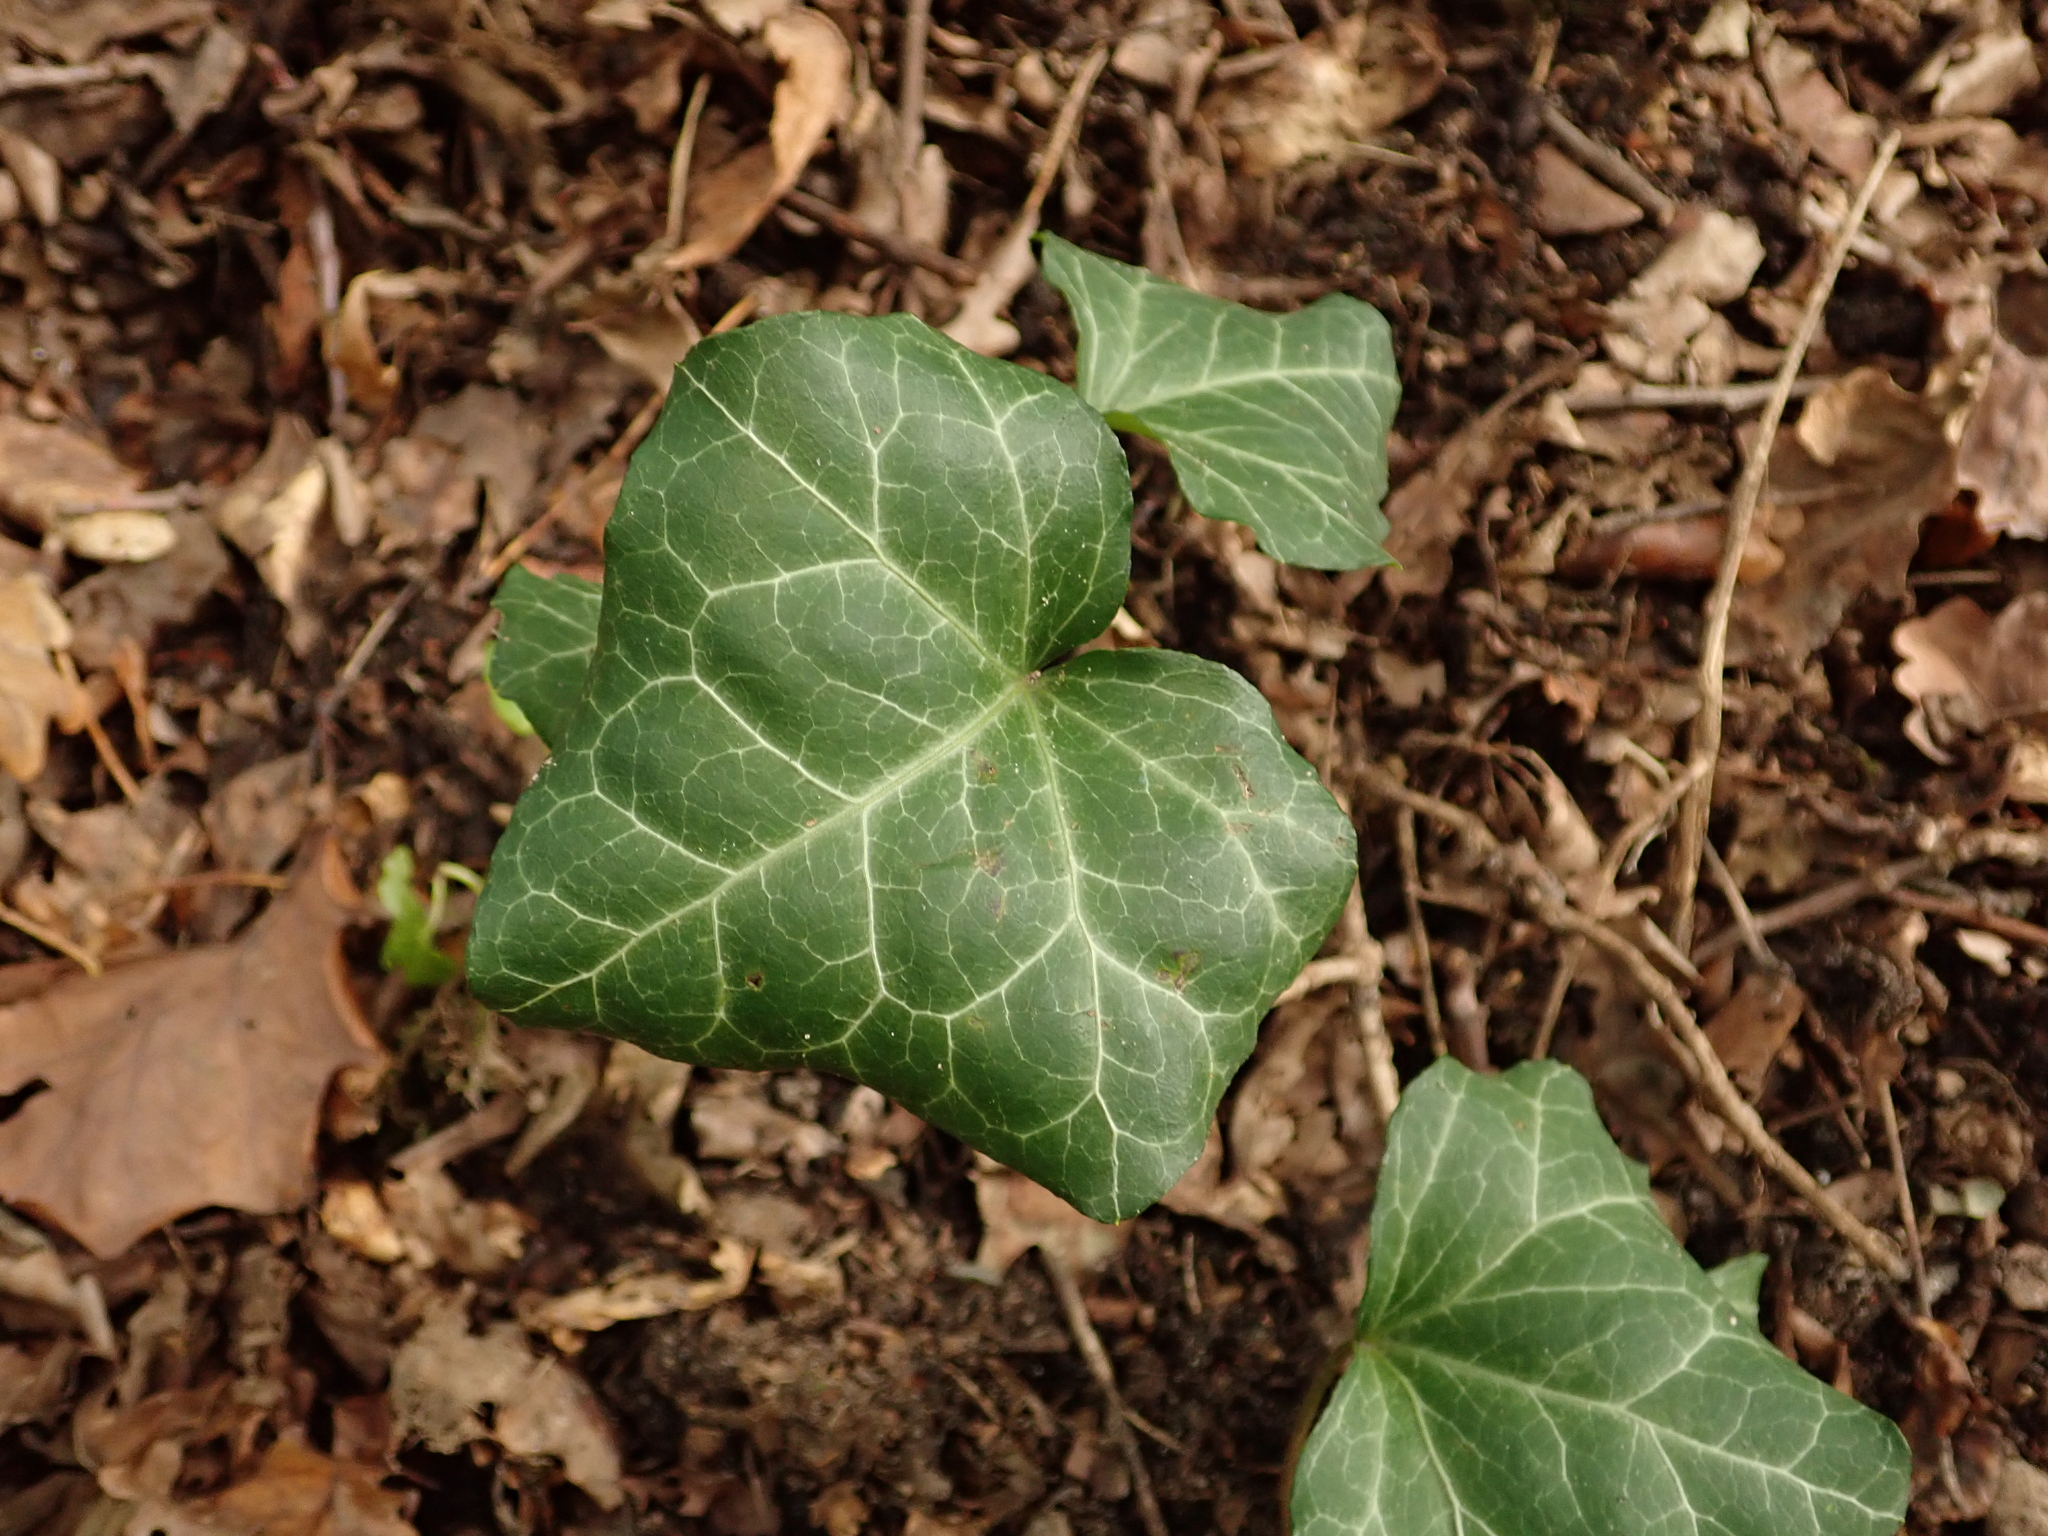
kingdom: Plantae
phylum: Tracheophyta
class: Magnoliopsida
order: Apiales
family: Araliaceae
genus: Hedera
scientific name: Hedera helix
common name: Ivy
